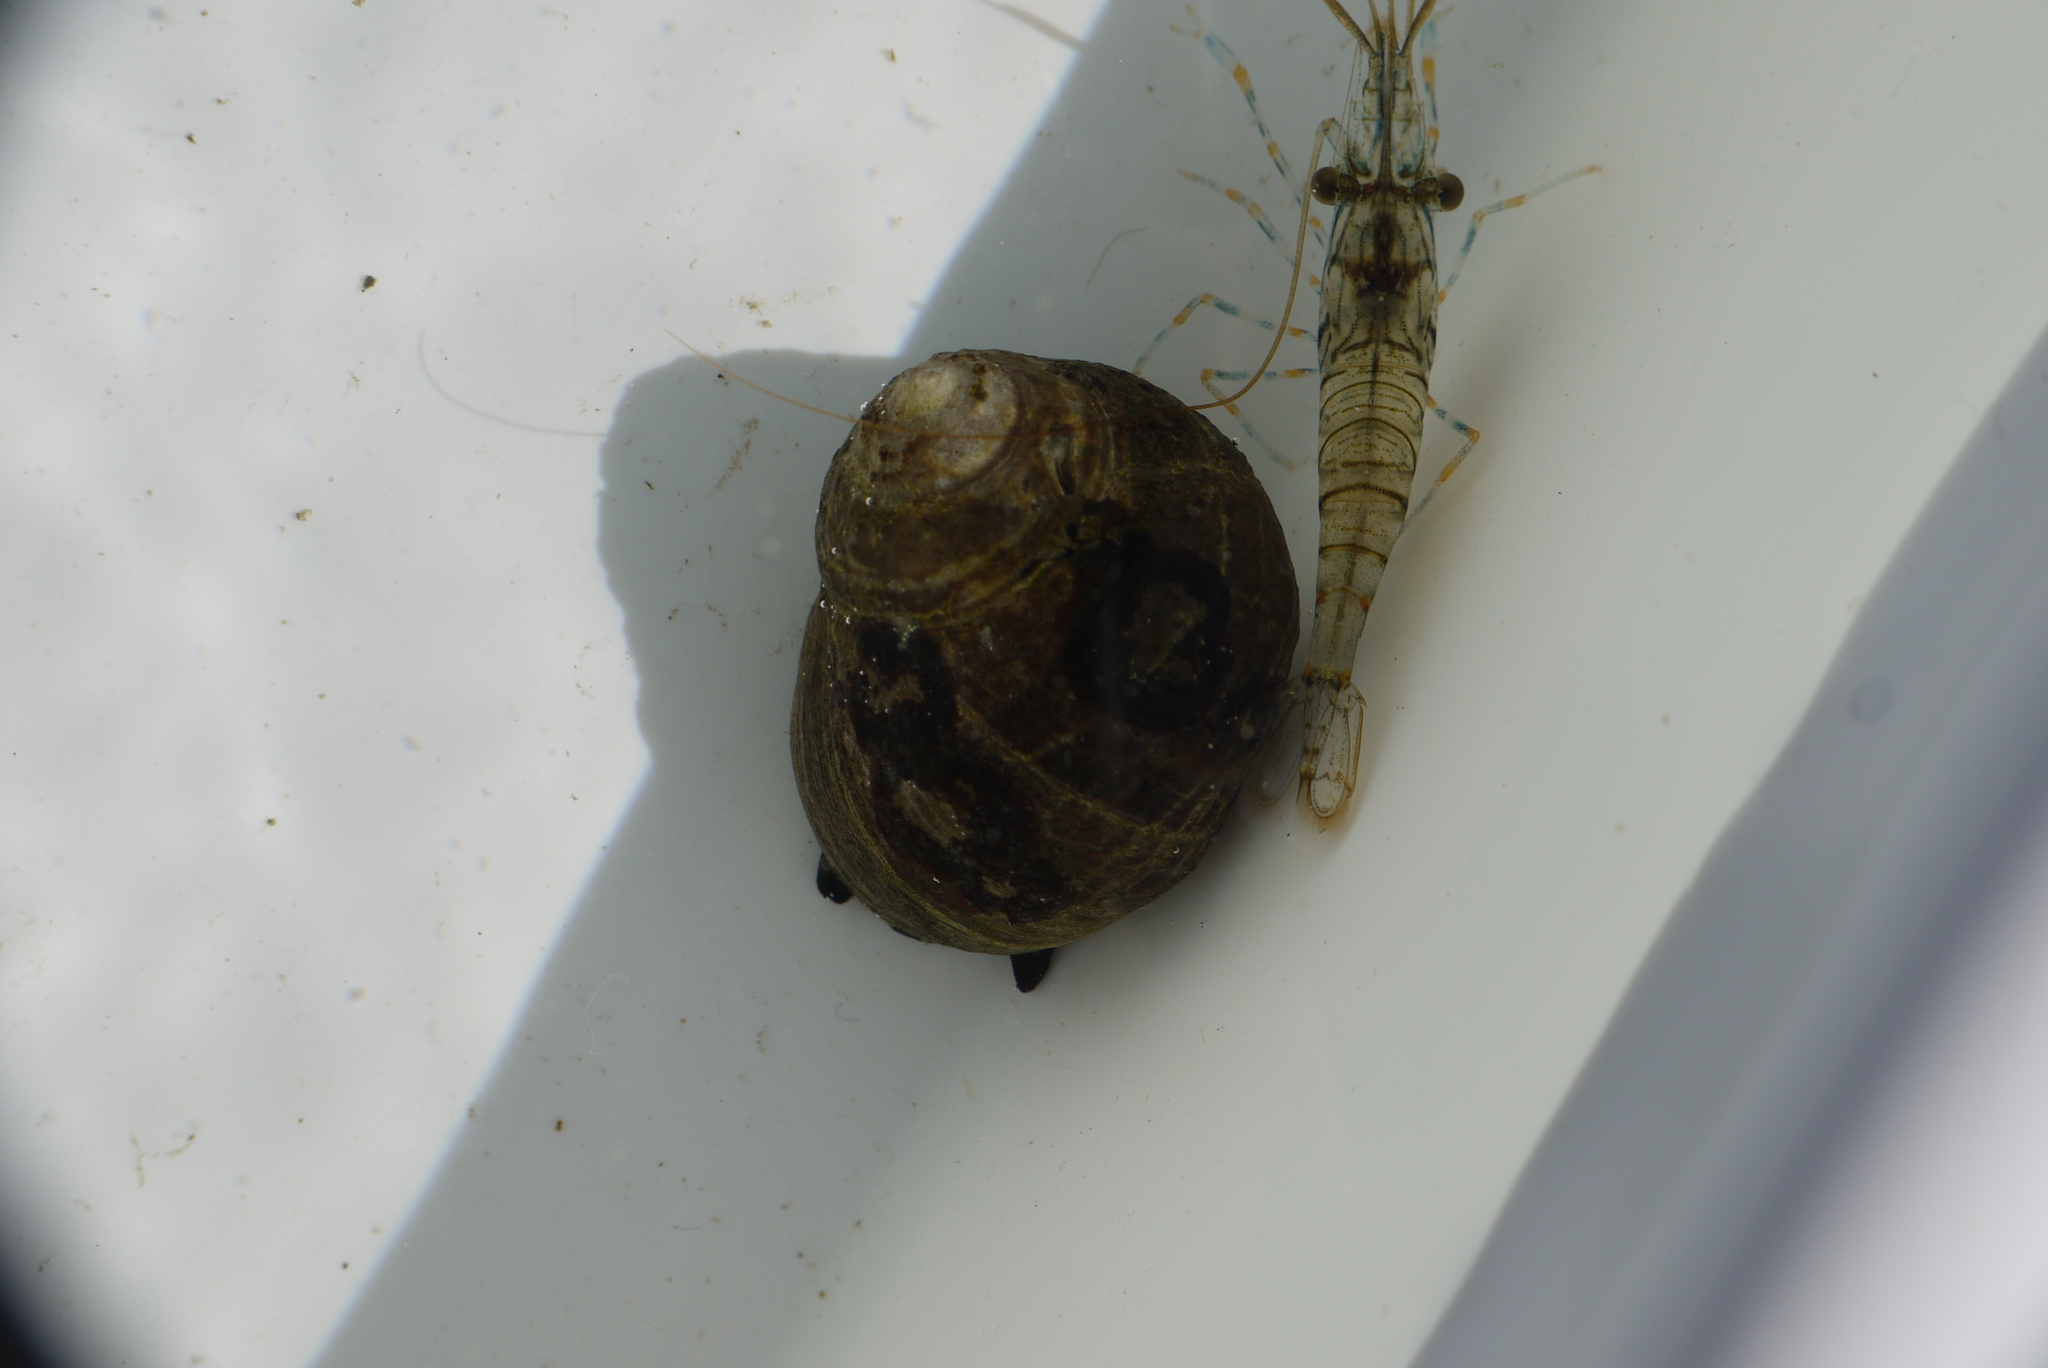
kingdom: Animalia
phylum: Mollusca
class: Gastropoda
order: Littorinimorpha
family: Littorinidae
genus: Littorina
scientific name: Littorina littorea
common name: Common periwinkle
